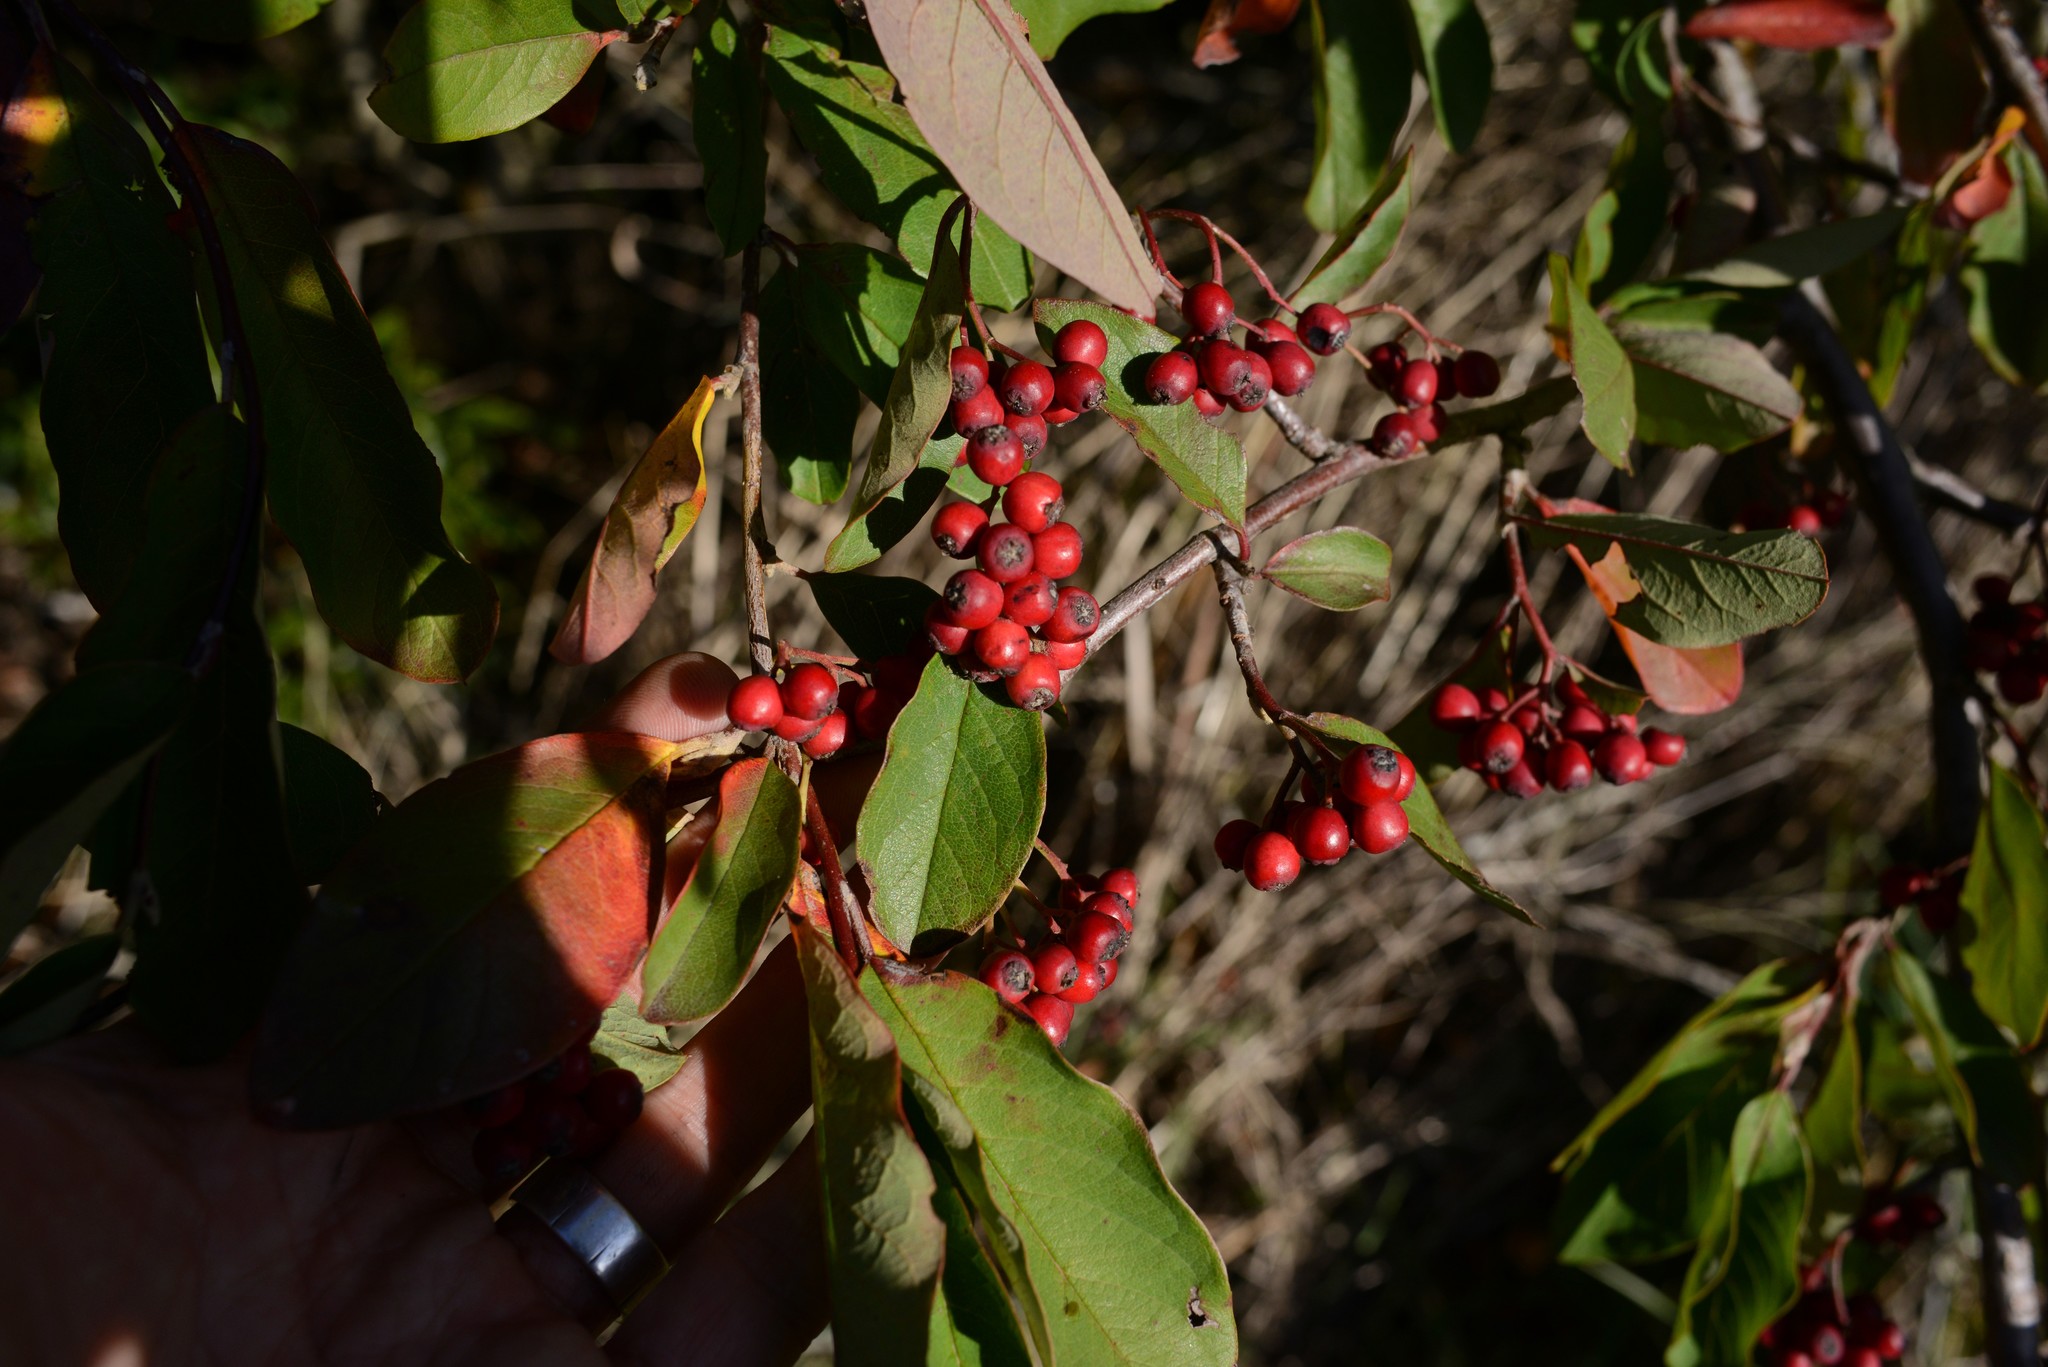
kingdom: Plantae
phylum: Tracheophyta
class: Magnoliopsida
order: Rosales
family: Rosaceae
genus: Cotoneaster
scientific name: Cotoneaster glaucophyllus
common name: Glaucous cotoneaster
